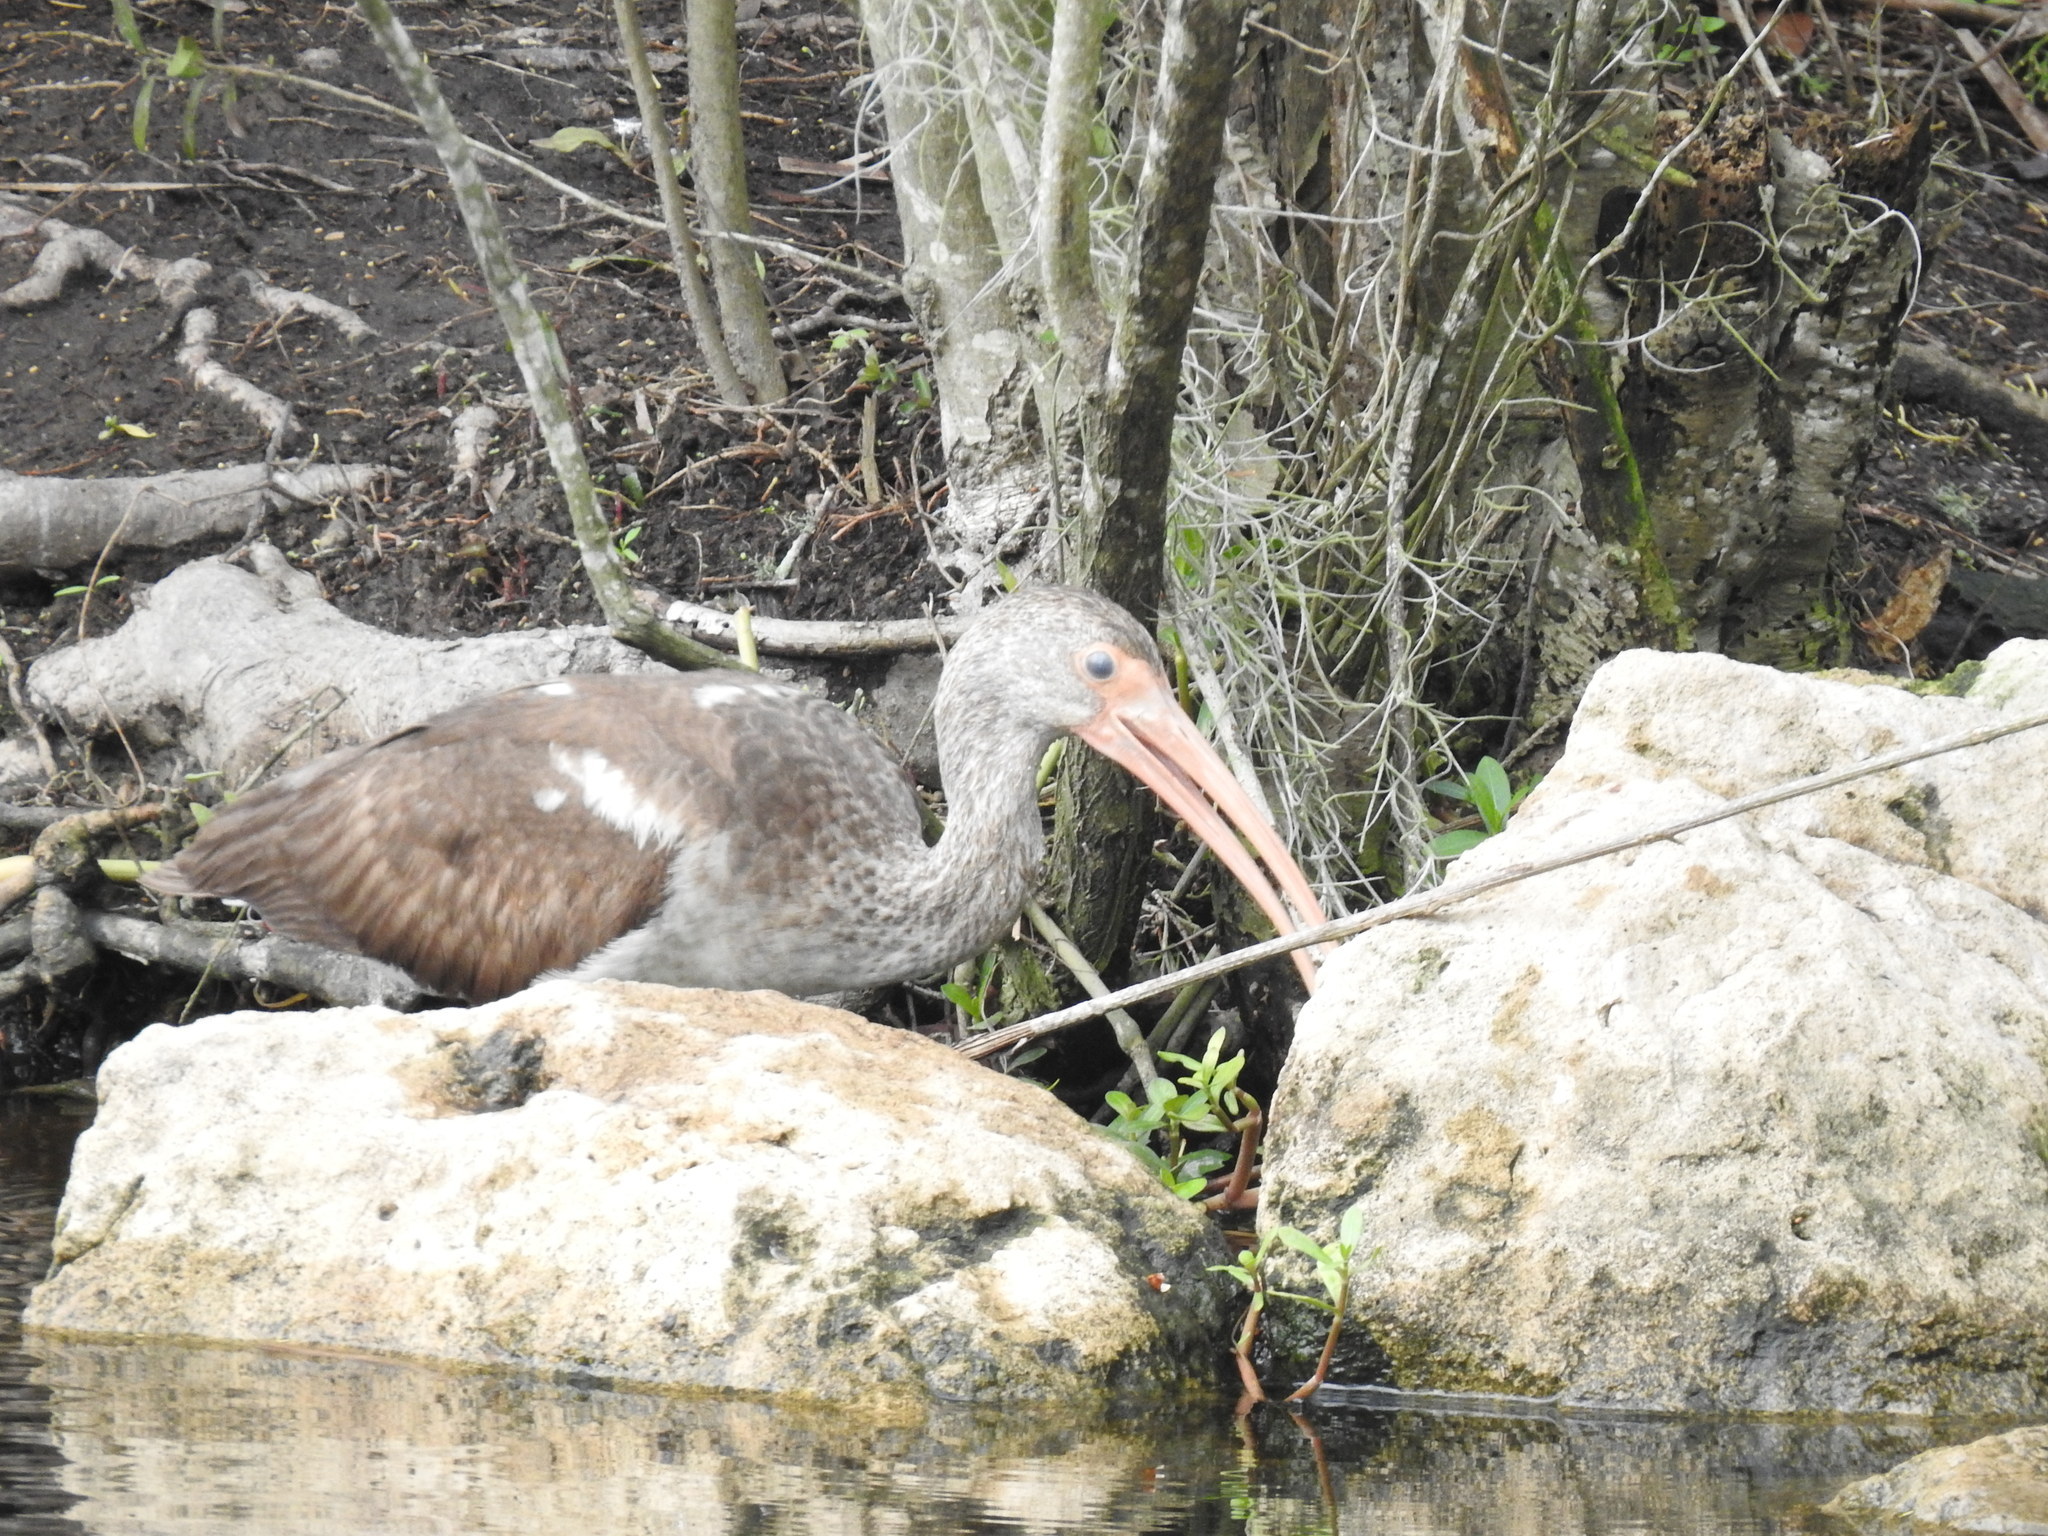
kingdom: Animalia
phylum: Chordata
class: Aves
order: Pelecaniformes
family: Threskiornithidae
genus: Eudocimus
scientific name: Eudocimus albus
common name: White ibis
